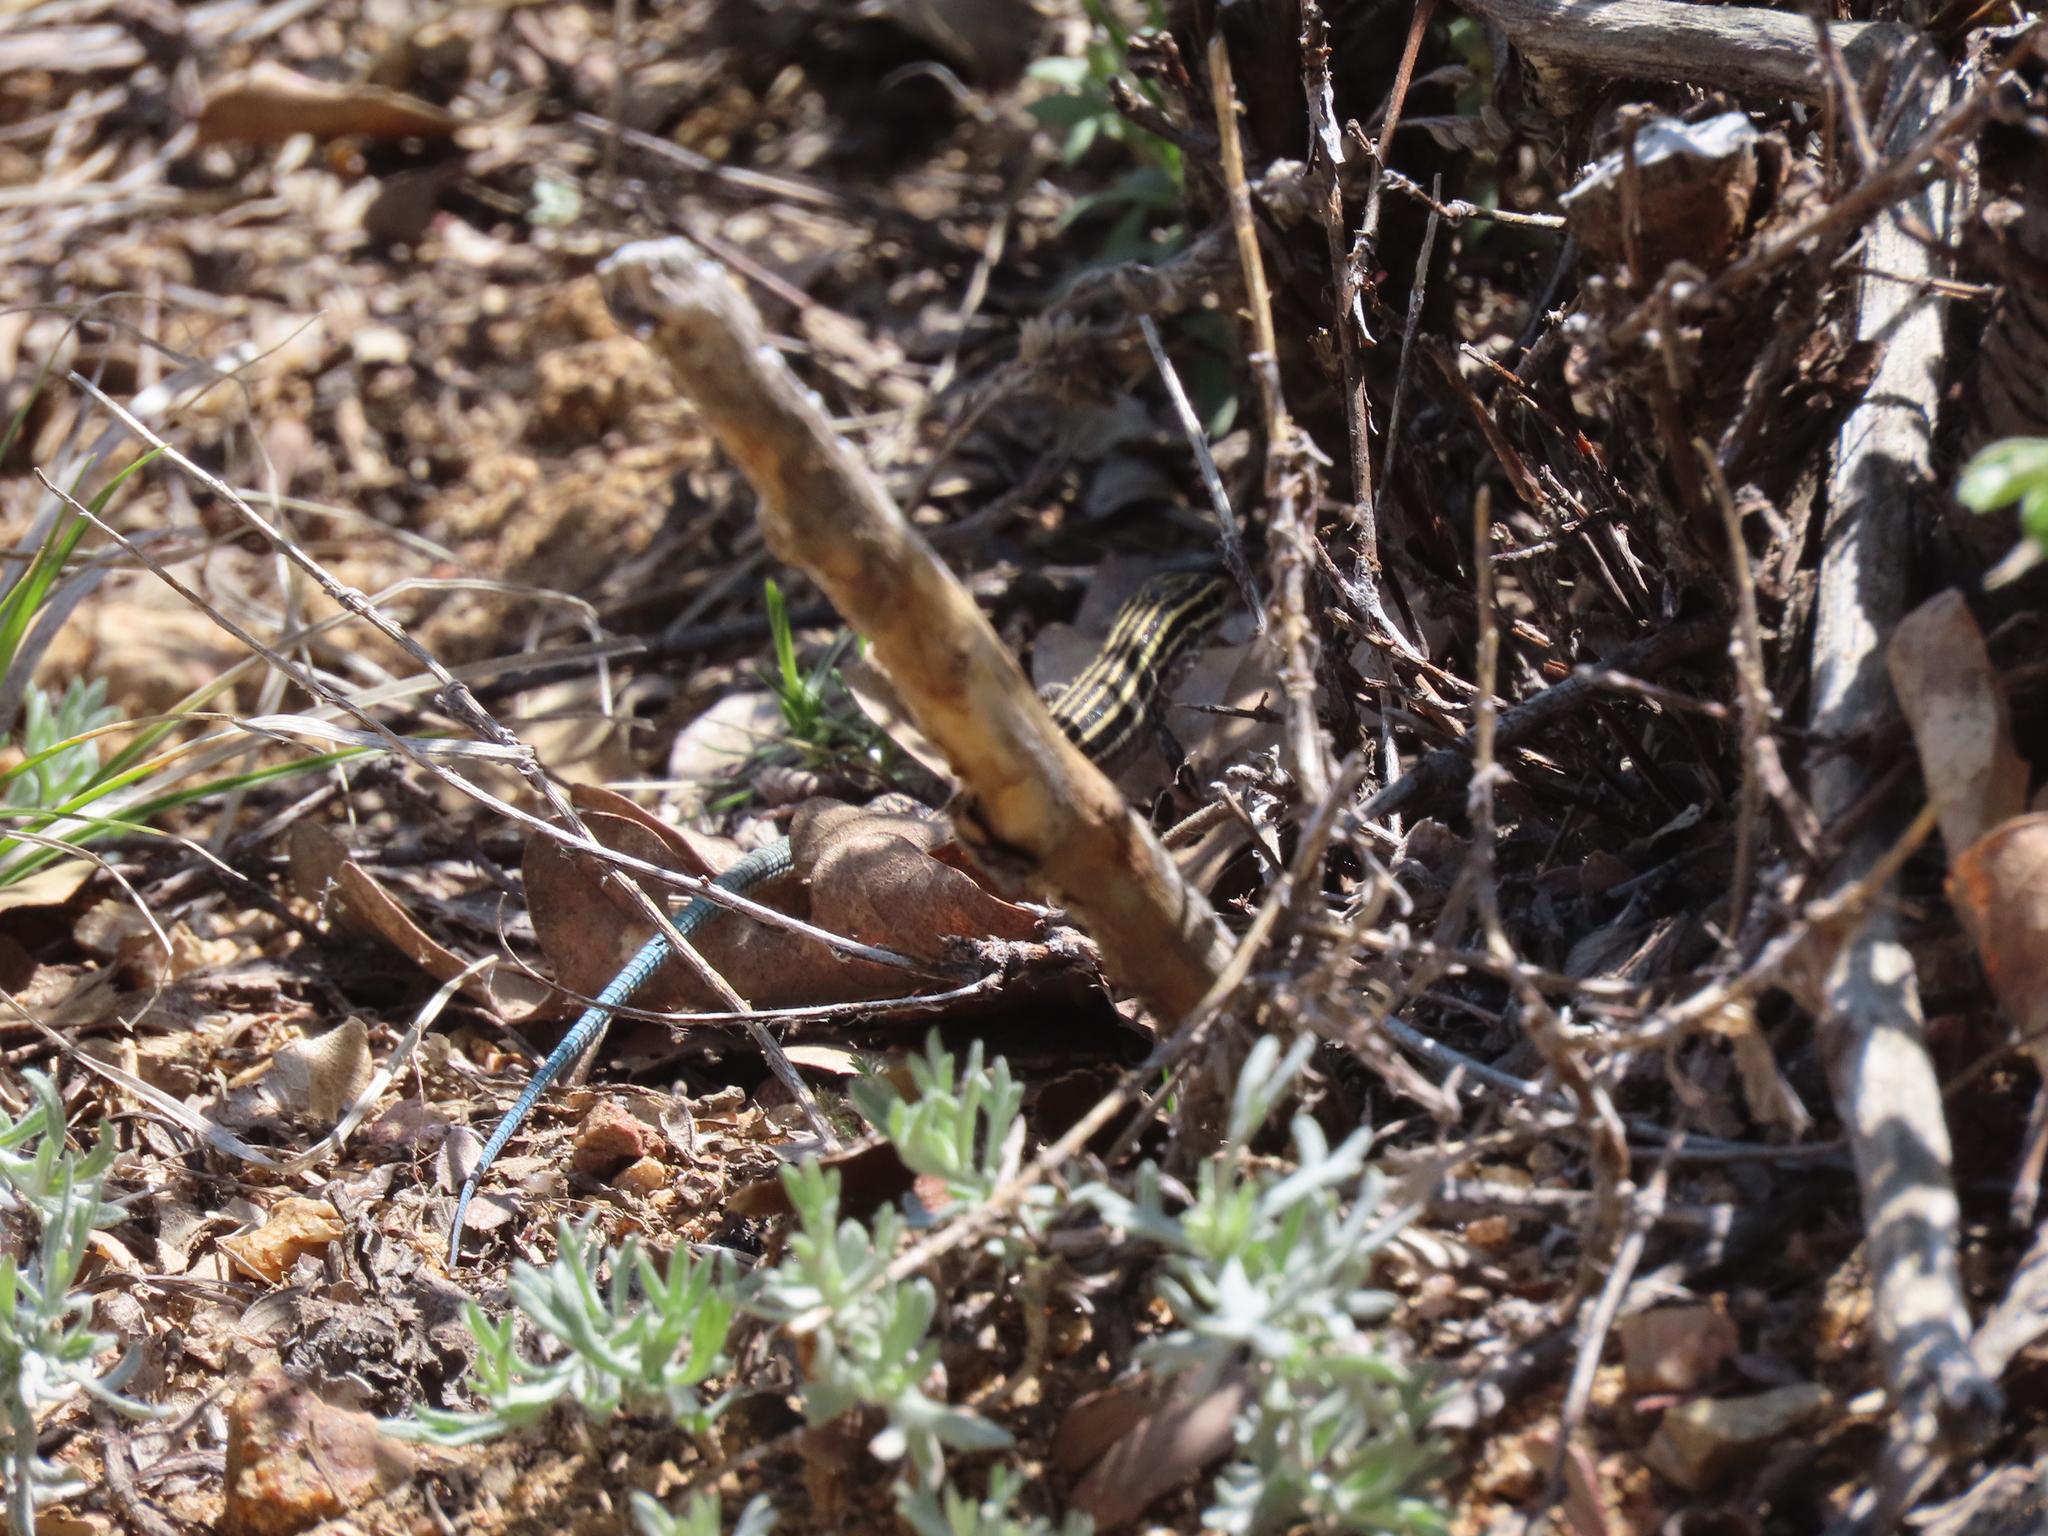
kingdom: Animalia
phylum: Chordata
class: Squamata
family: Teiidae
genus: Aspidoscelis
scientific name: Aspidoscelis velox
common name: Plateau striped whiptail
